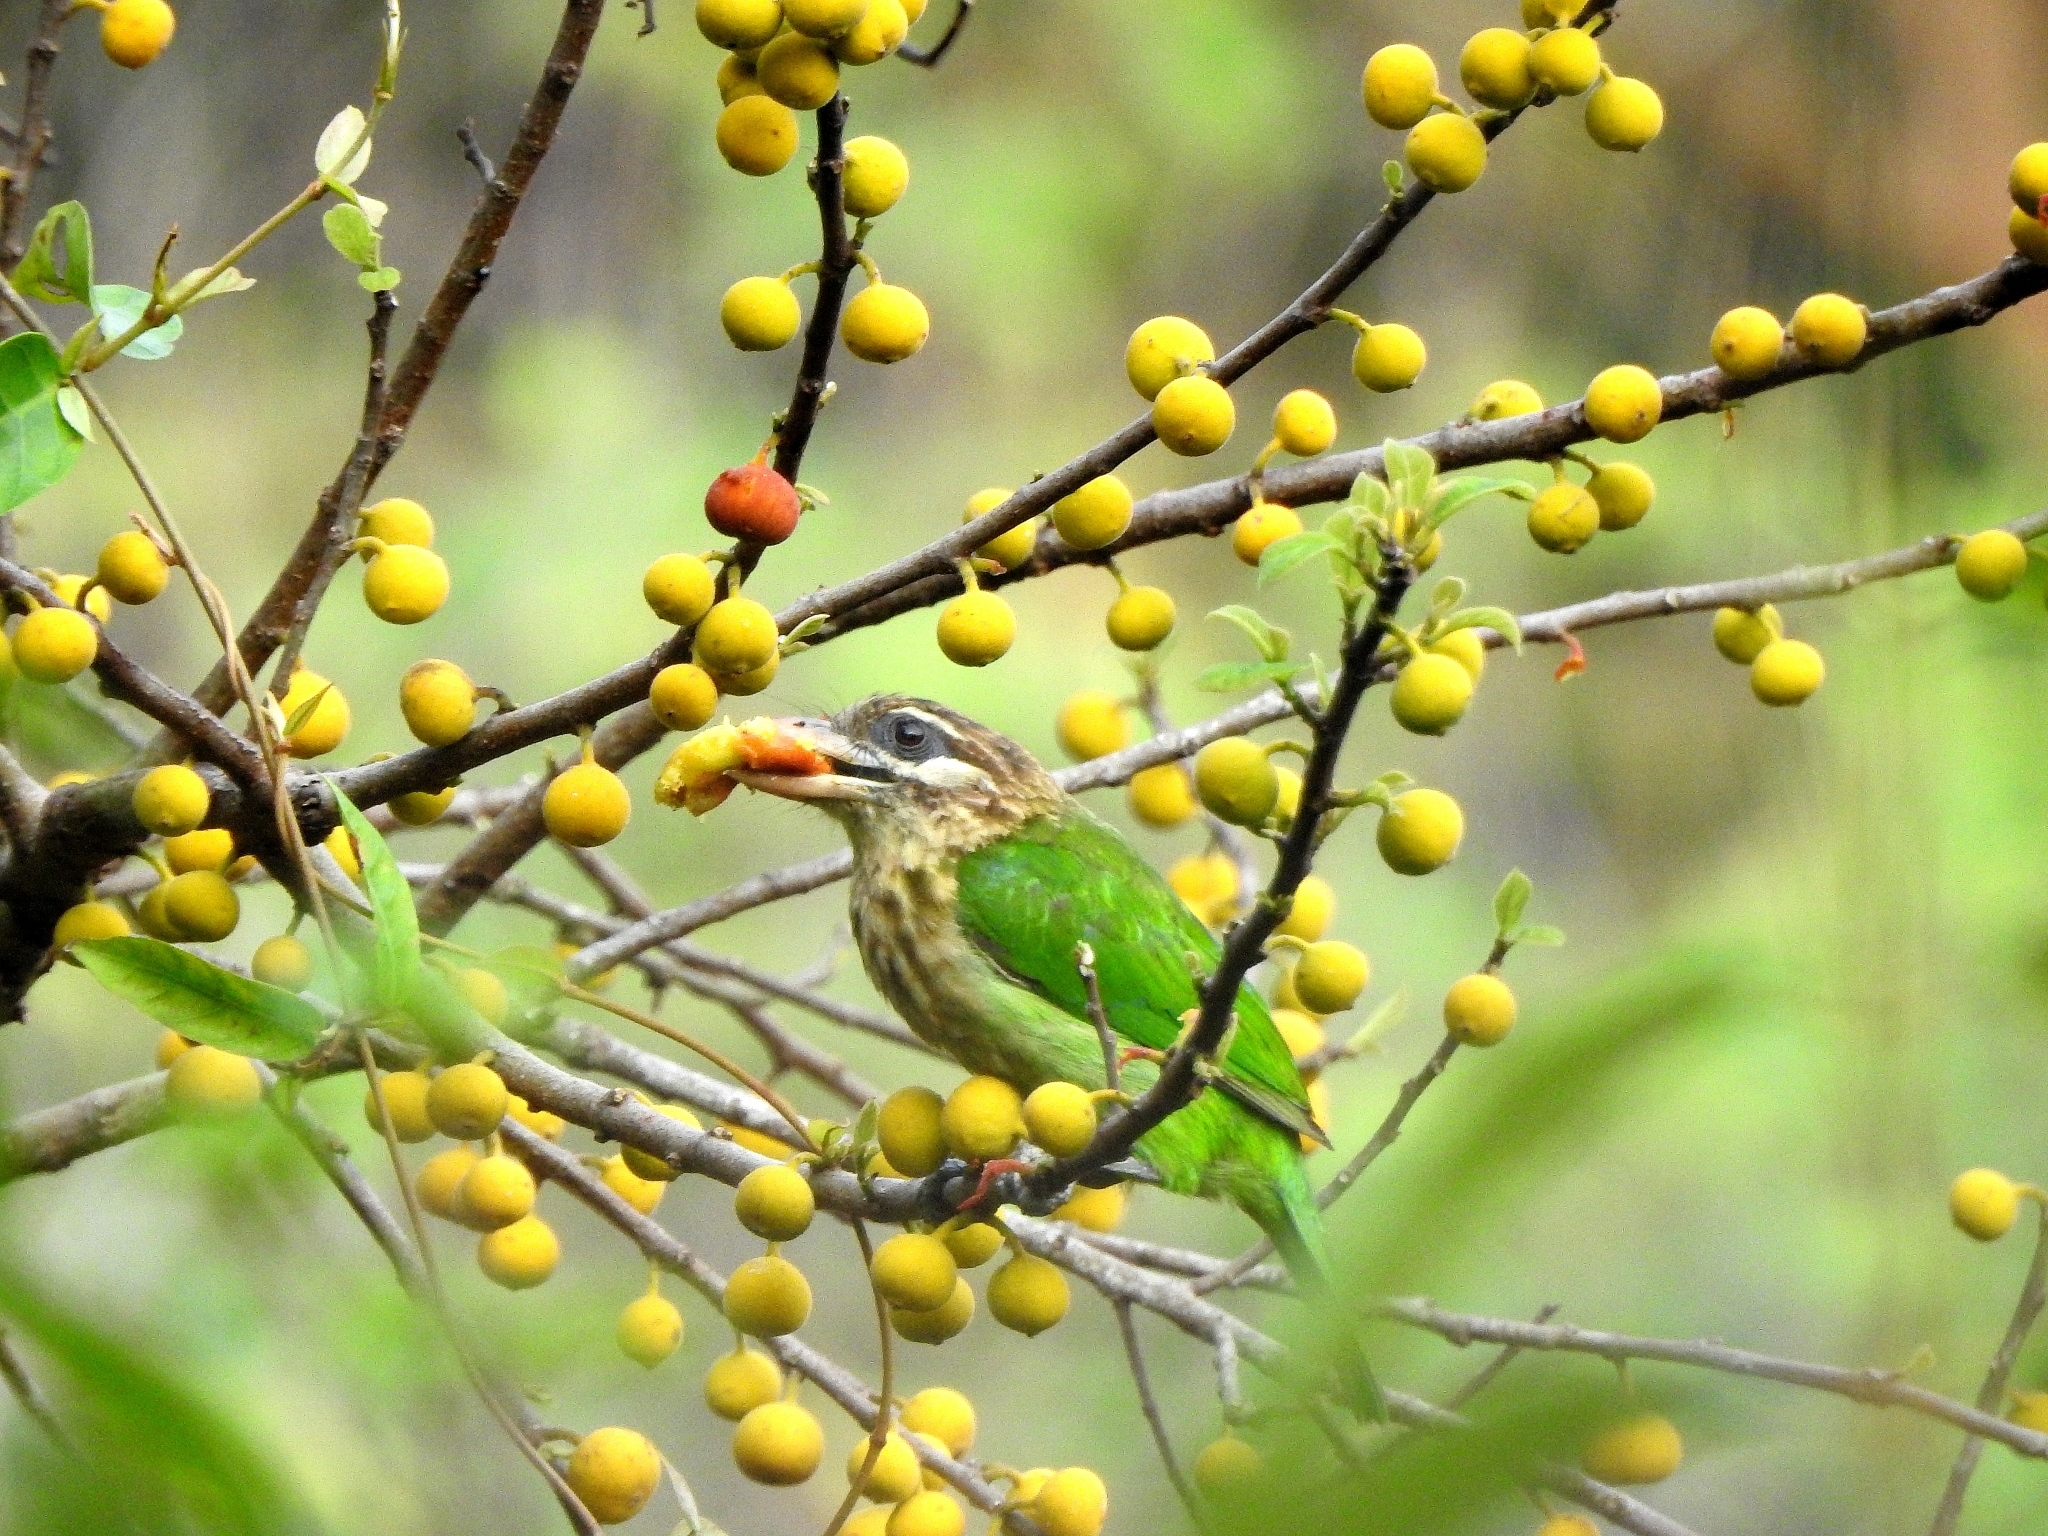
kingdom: Animalia
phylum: Chordata
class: Aves
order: Piciformes
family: Megalaimidae
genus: Psilopogon
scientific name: Psilopogon viridis
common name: White-cheeked barbet
